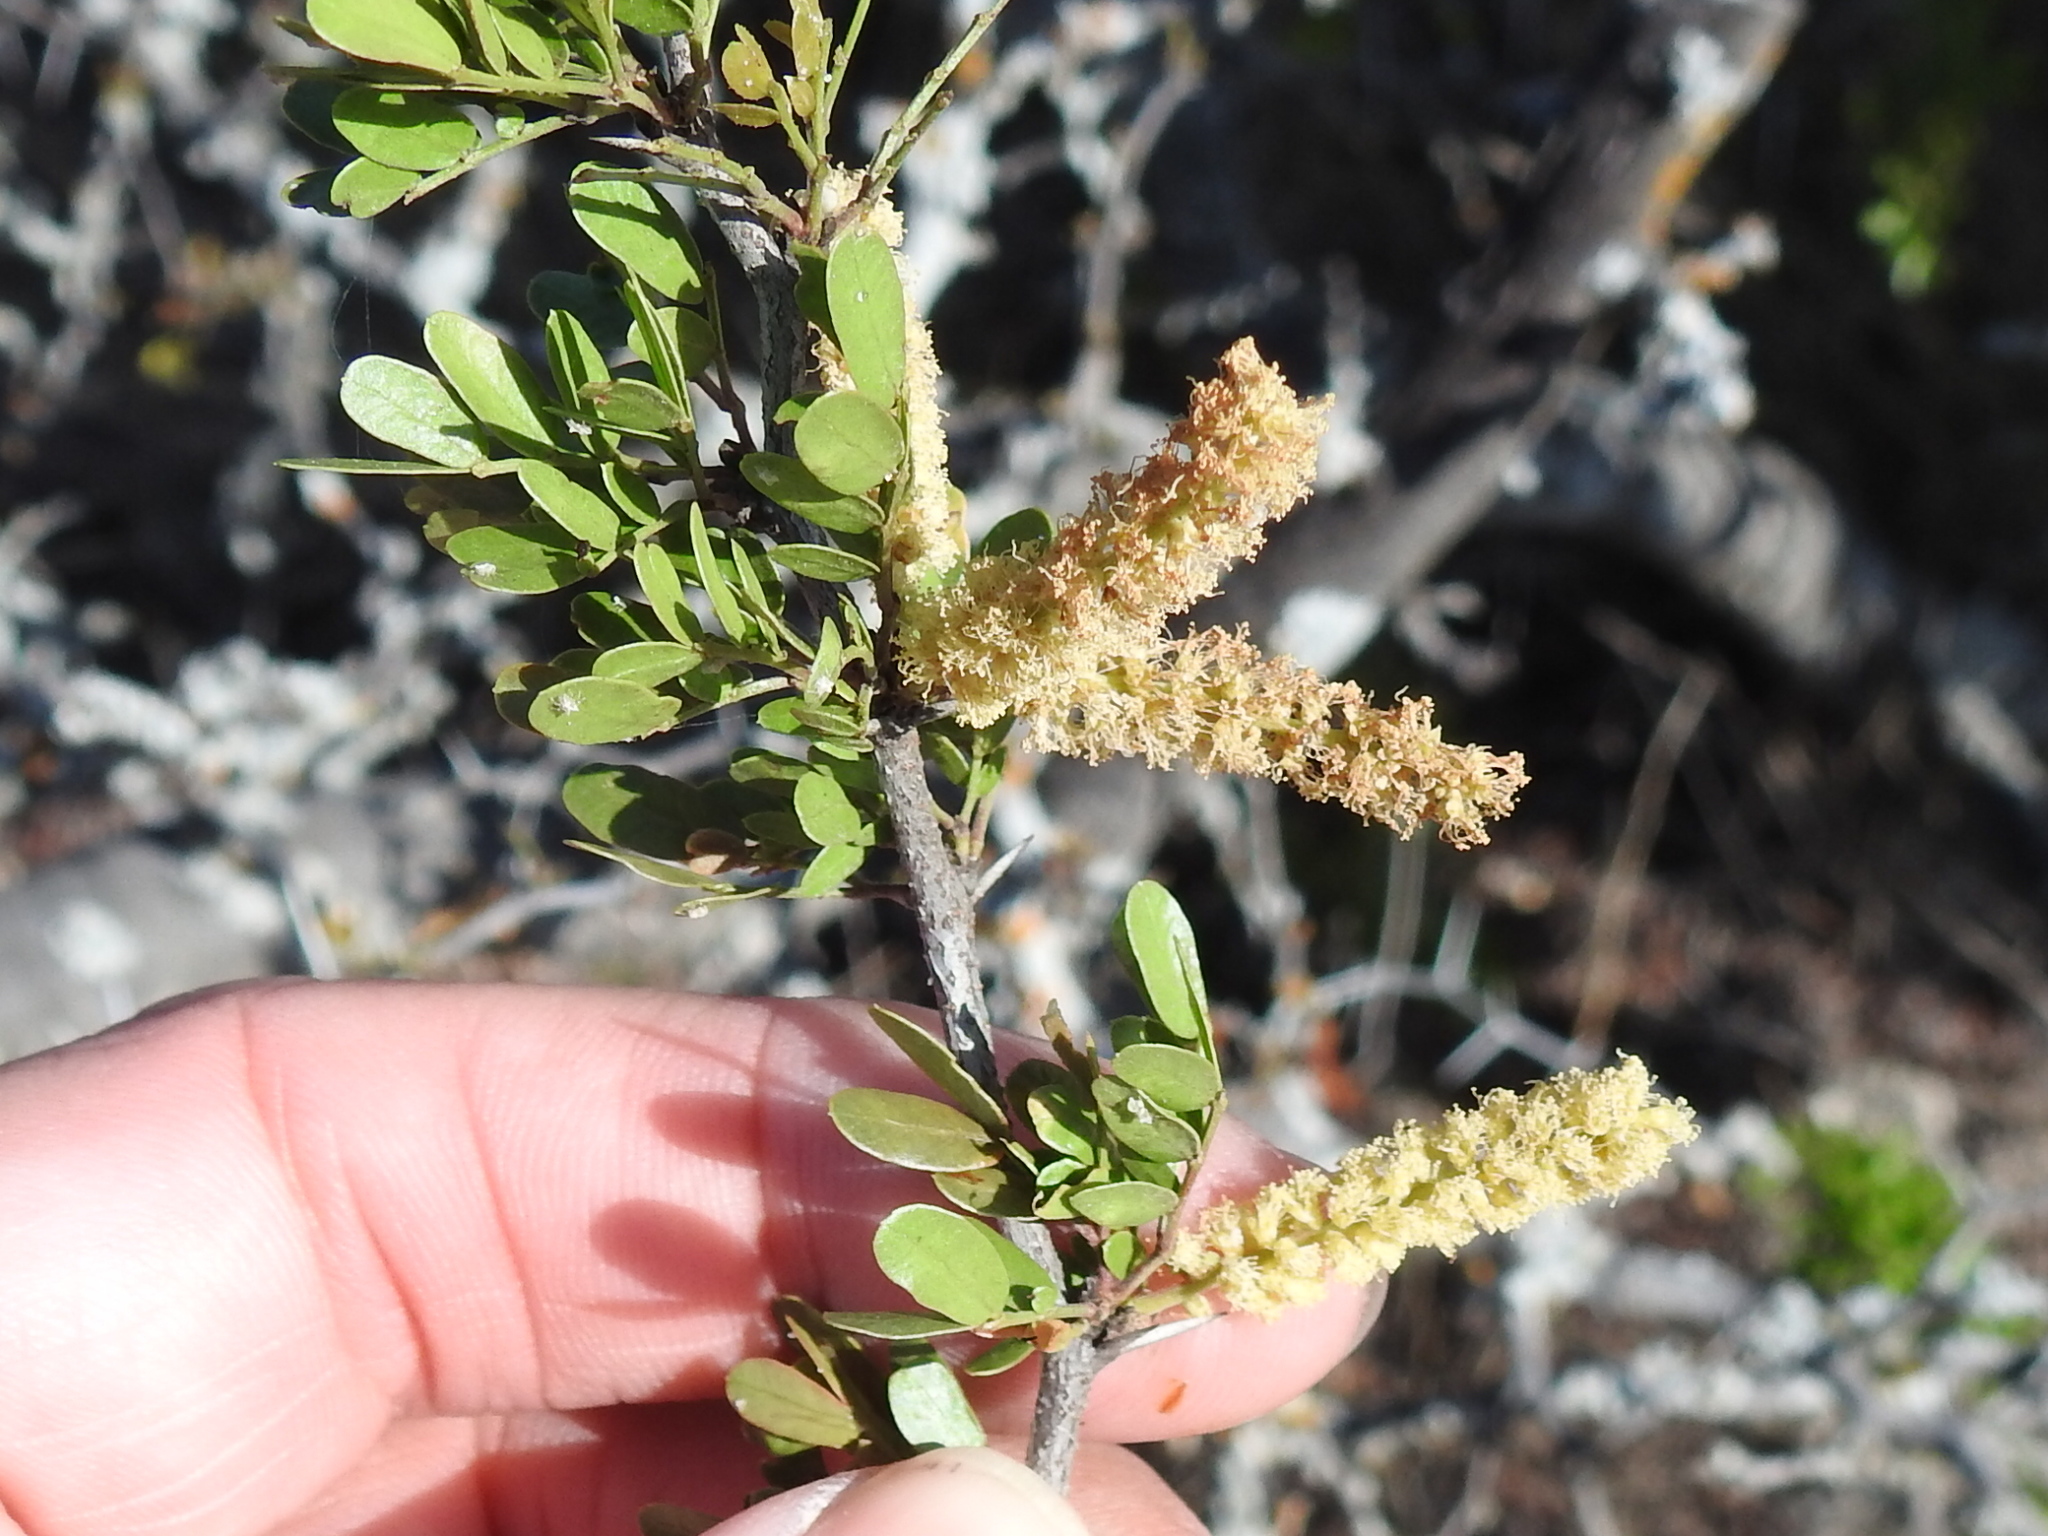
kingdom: Plantae
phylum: Tracheophyta
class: Magnoliopsida
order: Fabales
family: Fabaceae
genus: Vachellia
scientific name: Vachellia rigidula
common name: Blackbrush
